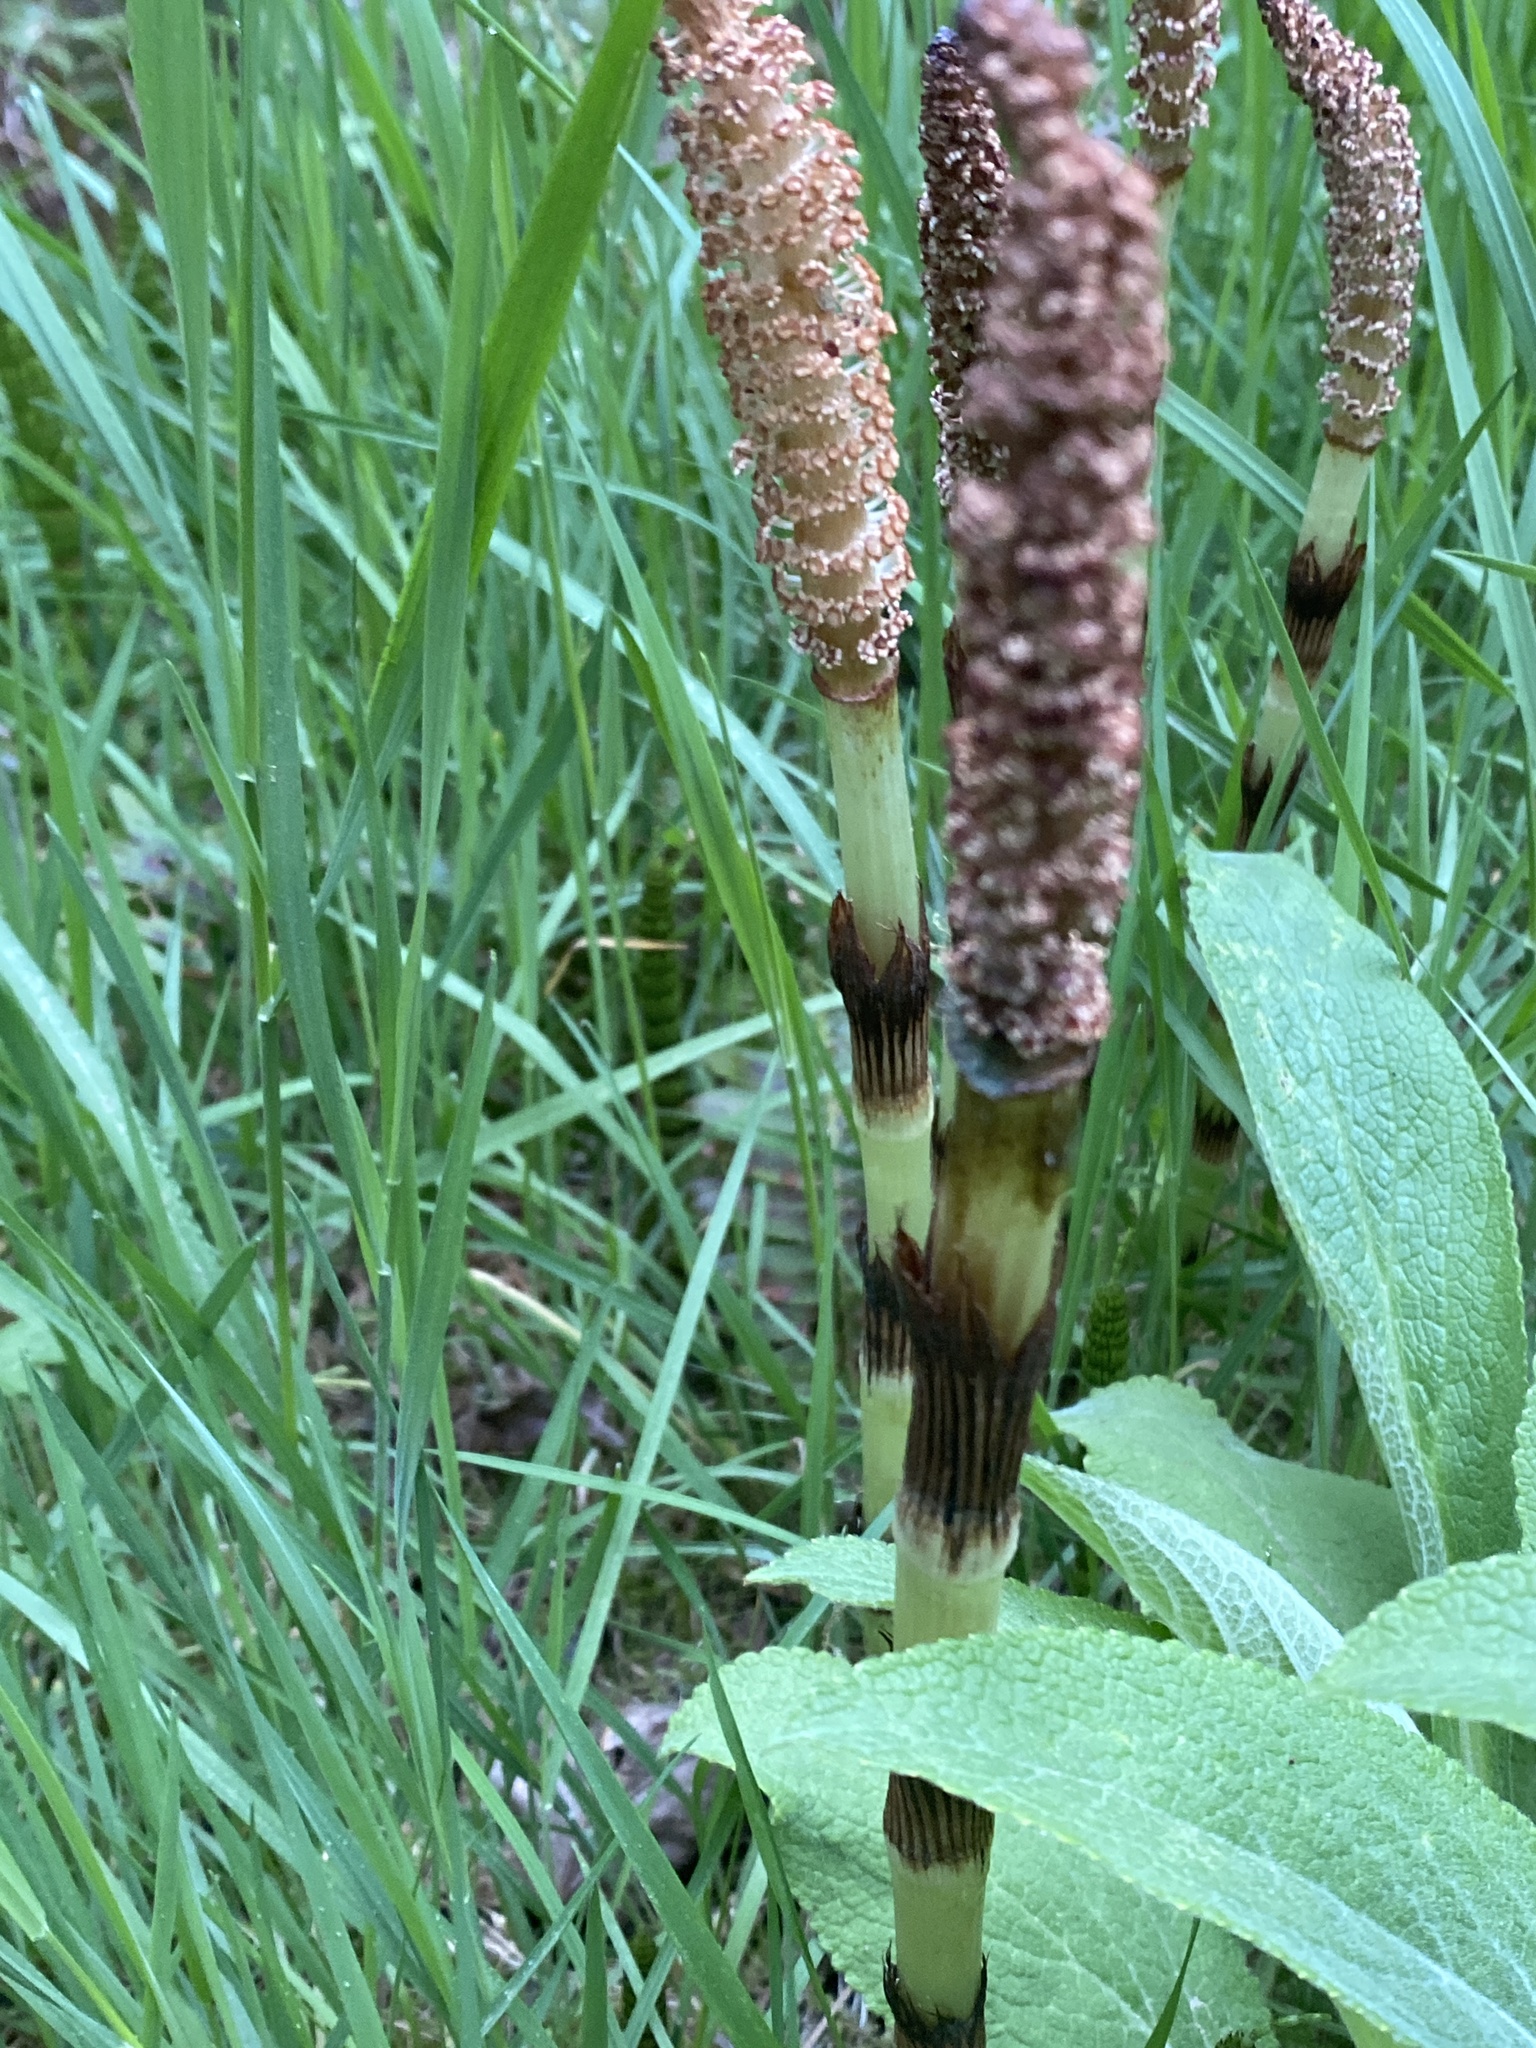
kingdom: Plantae
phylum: Tracheophyta
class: Polypodiopsida
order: Equisetales
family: Equisetaceae
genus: Equisetum
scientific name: Equisetum braunii
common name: Braun's horsetail
